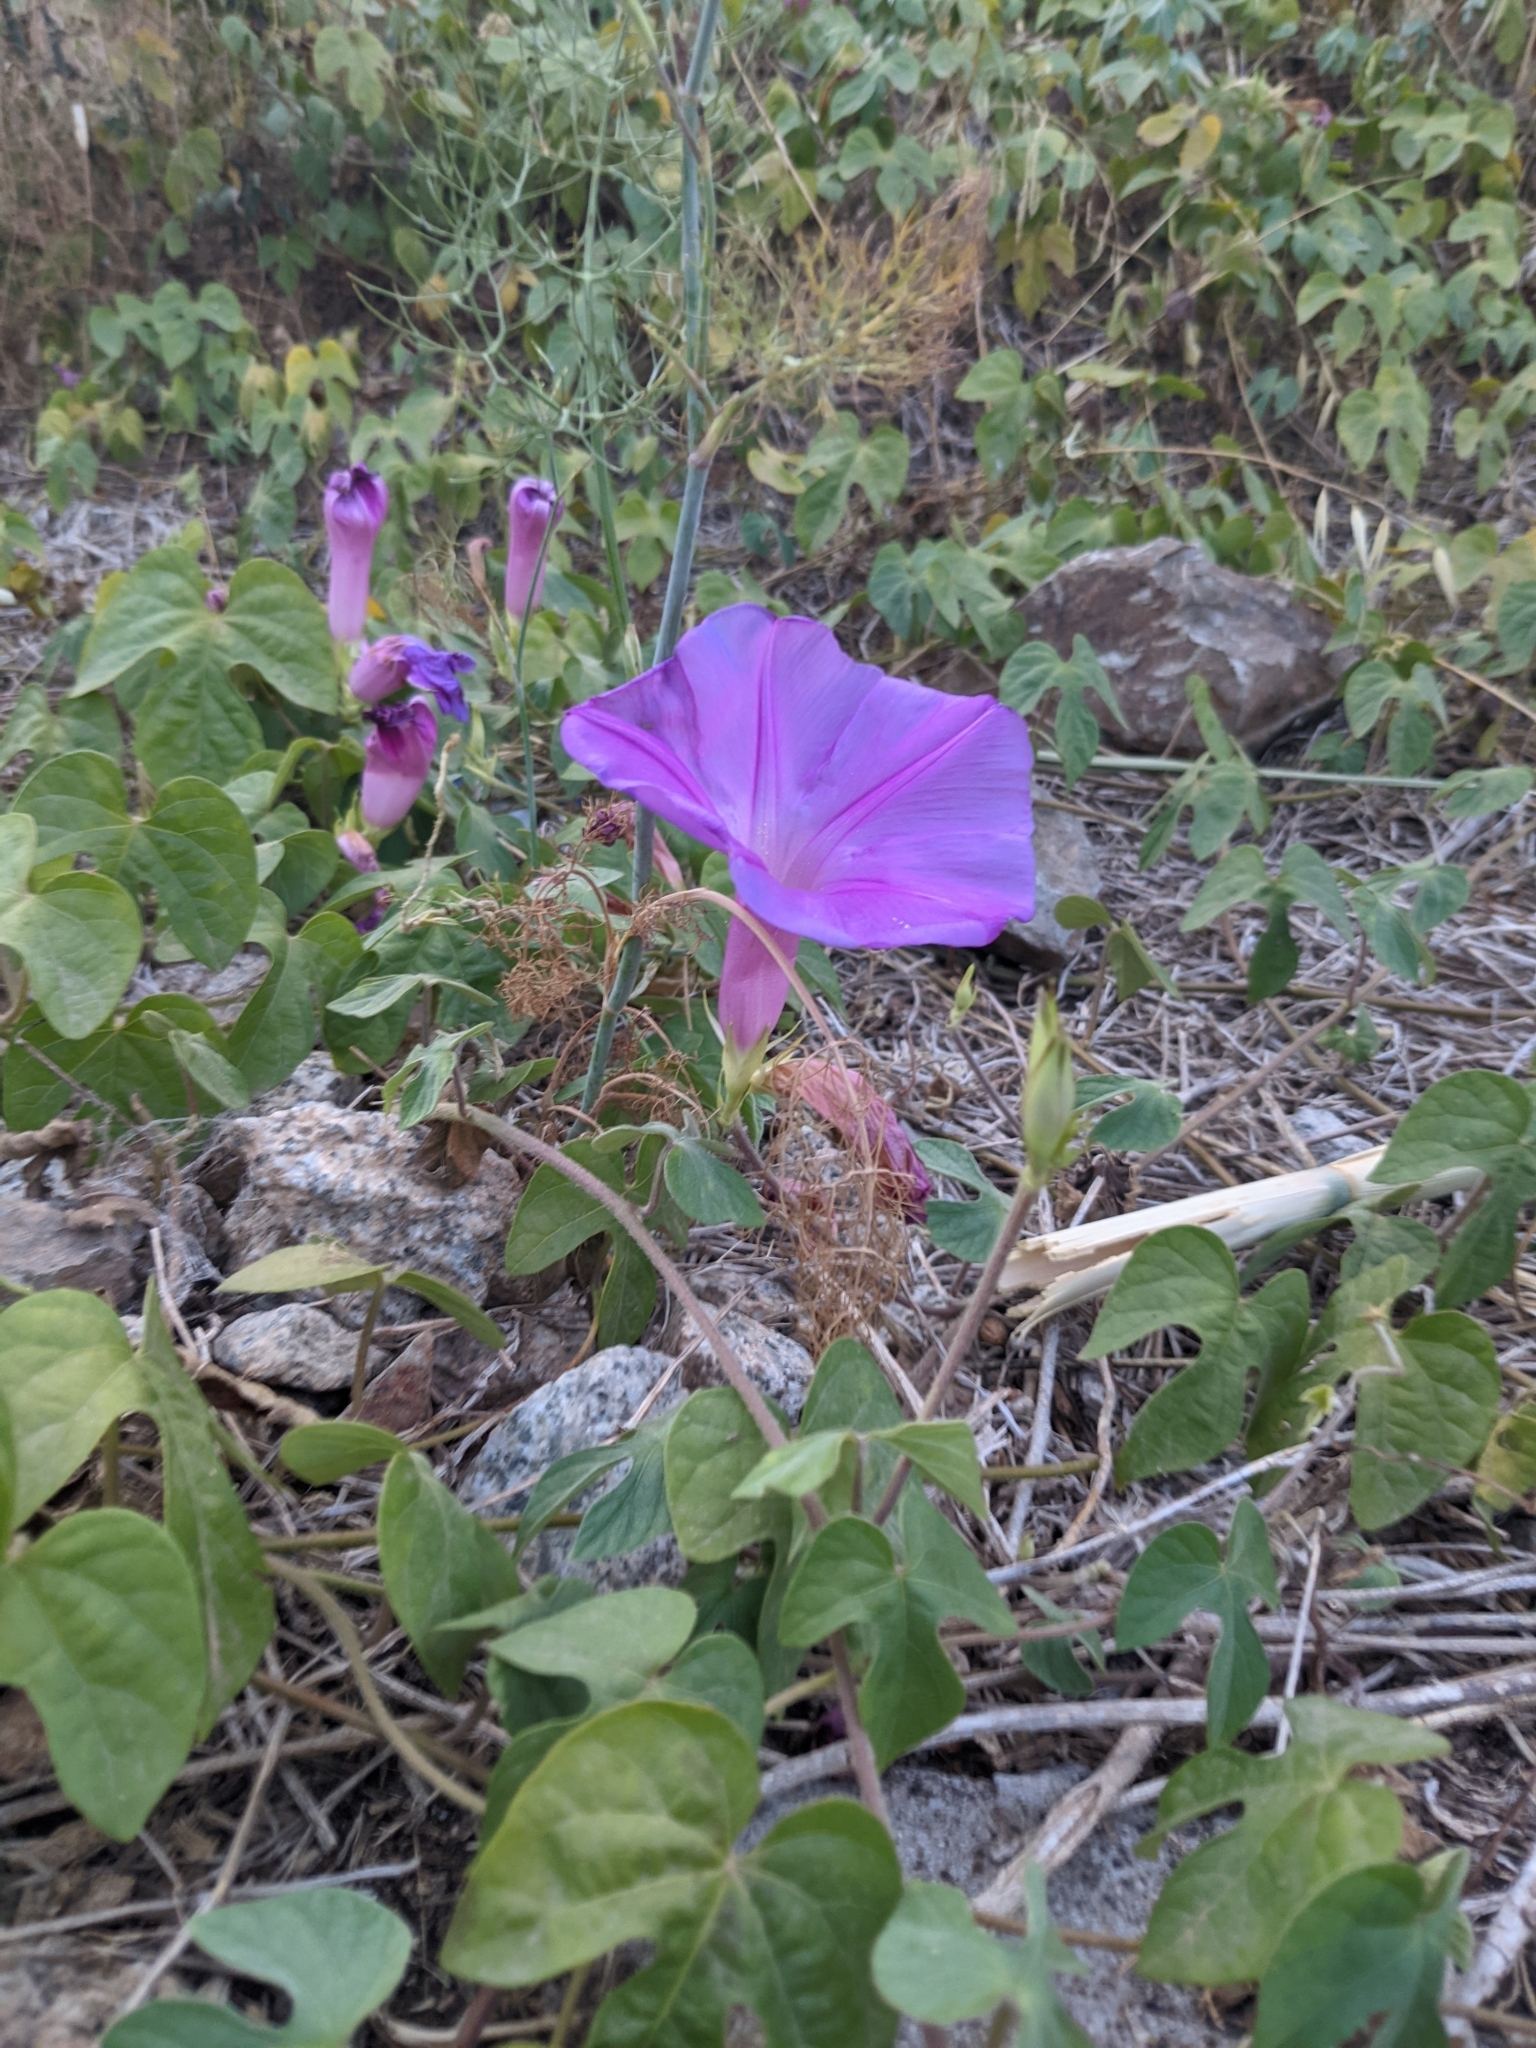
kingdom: Plantae
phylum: Tracheophyta
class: Magnoliopsida
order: Solanales
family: Convolvulaceae
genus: Ipomoea
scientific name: Ipomoea indica
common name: Blue dawnflower
